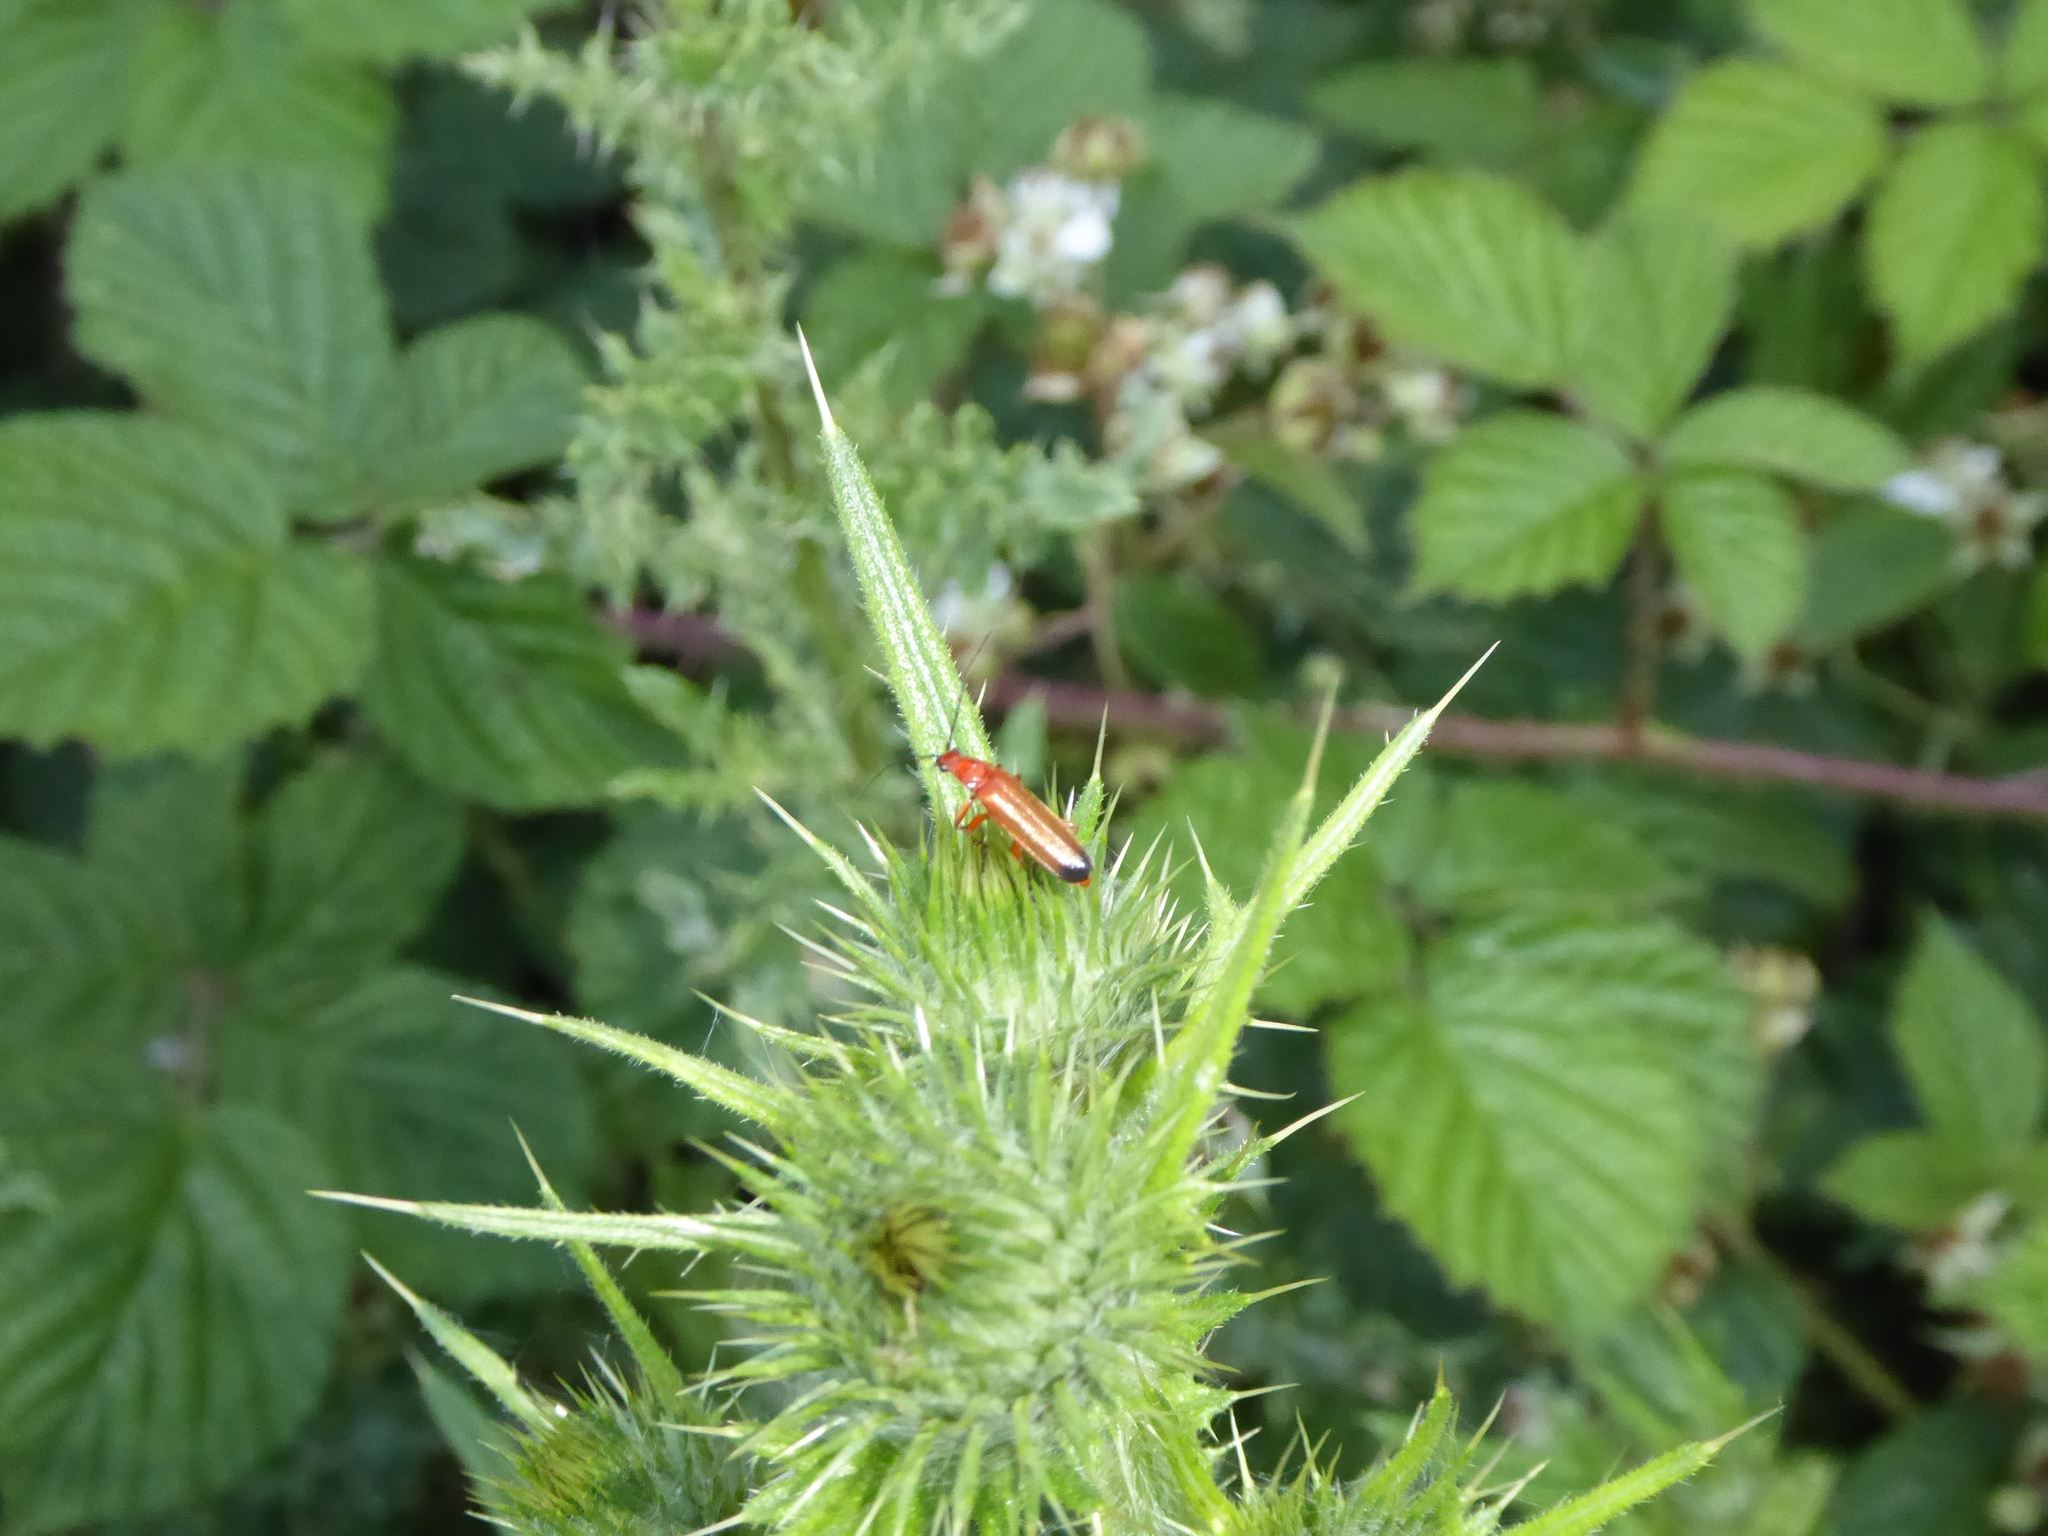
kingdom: Animalia
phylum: Arthropoda
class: Insecta
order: Coleoptera
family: Cantharidae
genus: Rhagonycha
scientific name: Rhagonycha fulva
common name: Common red soldier beetle
